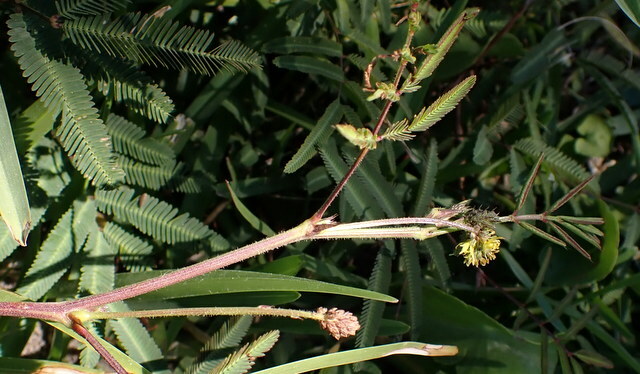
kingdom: Plantae
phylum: Tracheophyta
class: Magnoliopsida
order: Fabales
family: Fabaceae
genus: Neptunia
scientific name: Neptunia pubescens
